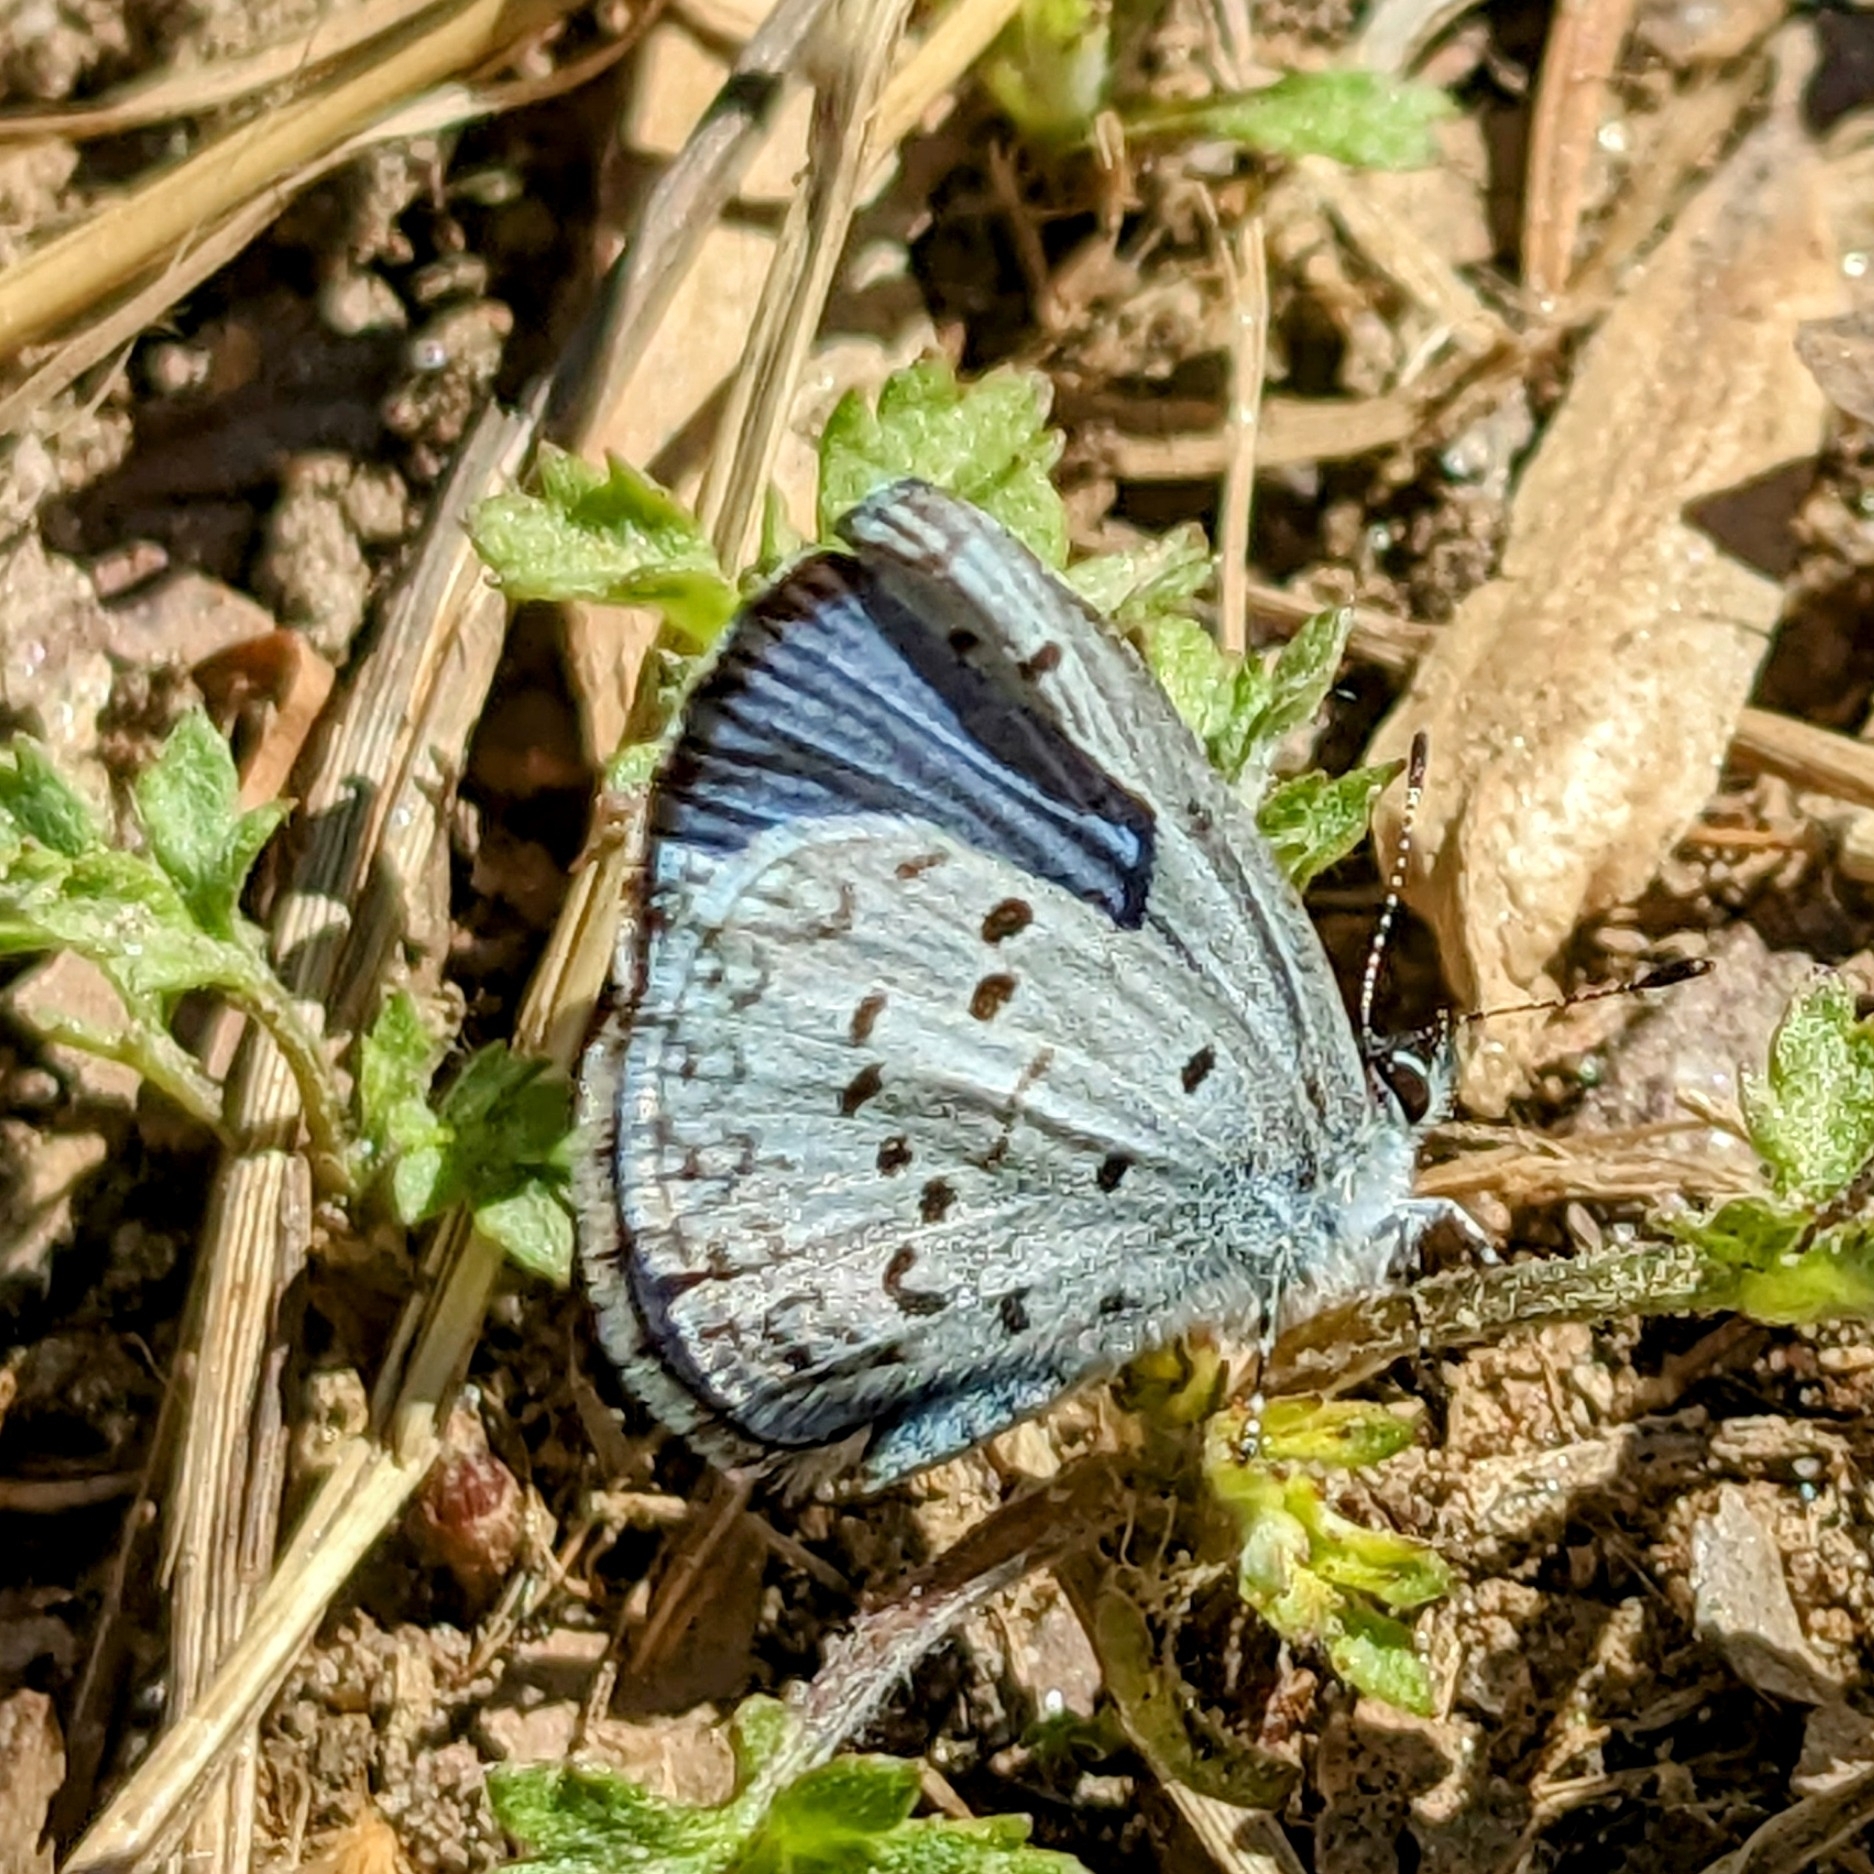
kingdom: Animalia
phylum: Arthropoda
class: Insecta
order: Lepidoptera
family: Lycaenidae
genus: Cyaniris
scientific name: Cyaniris neglecta
